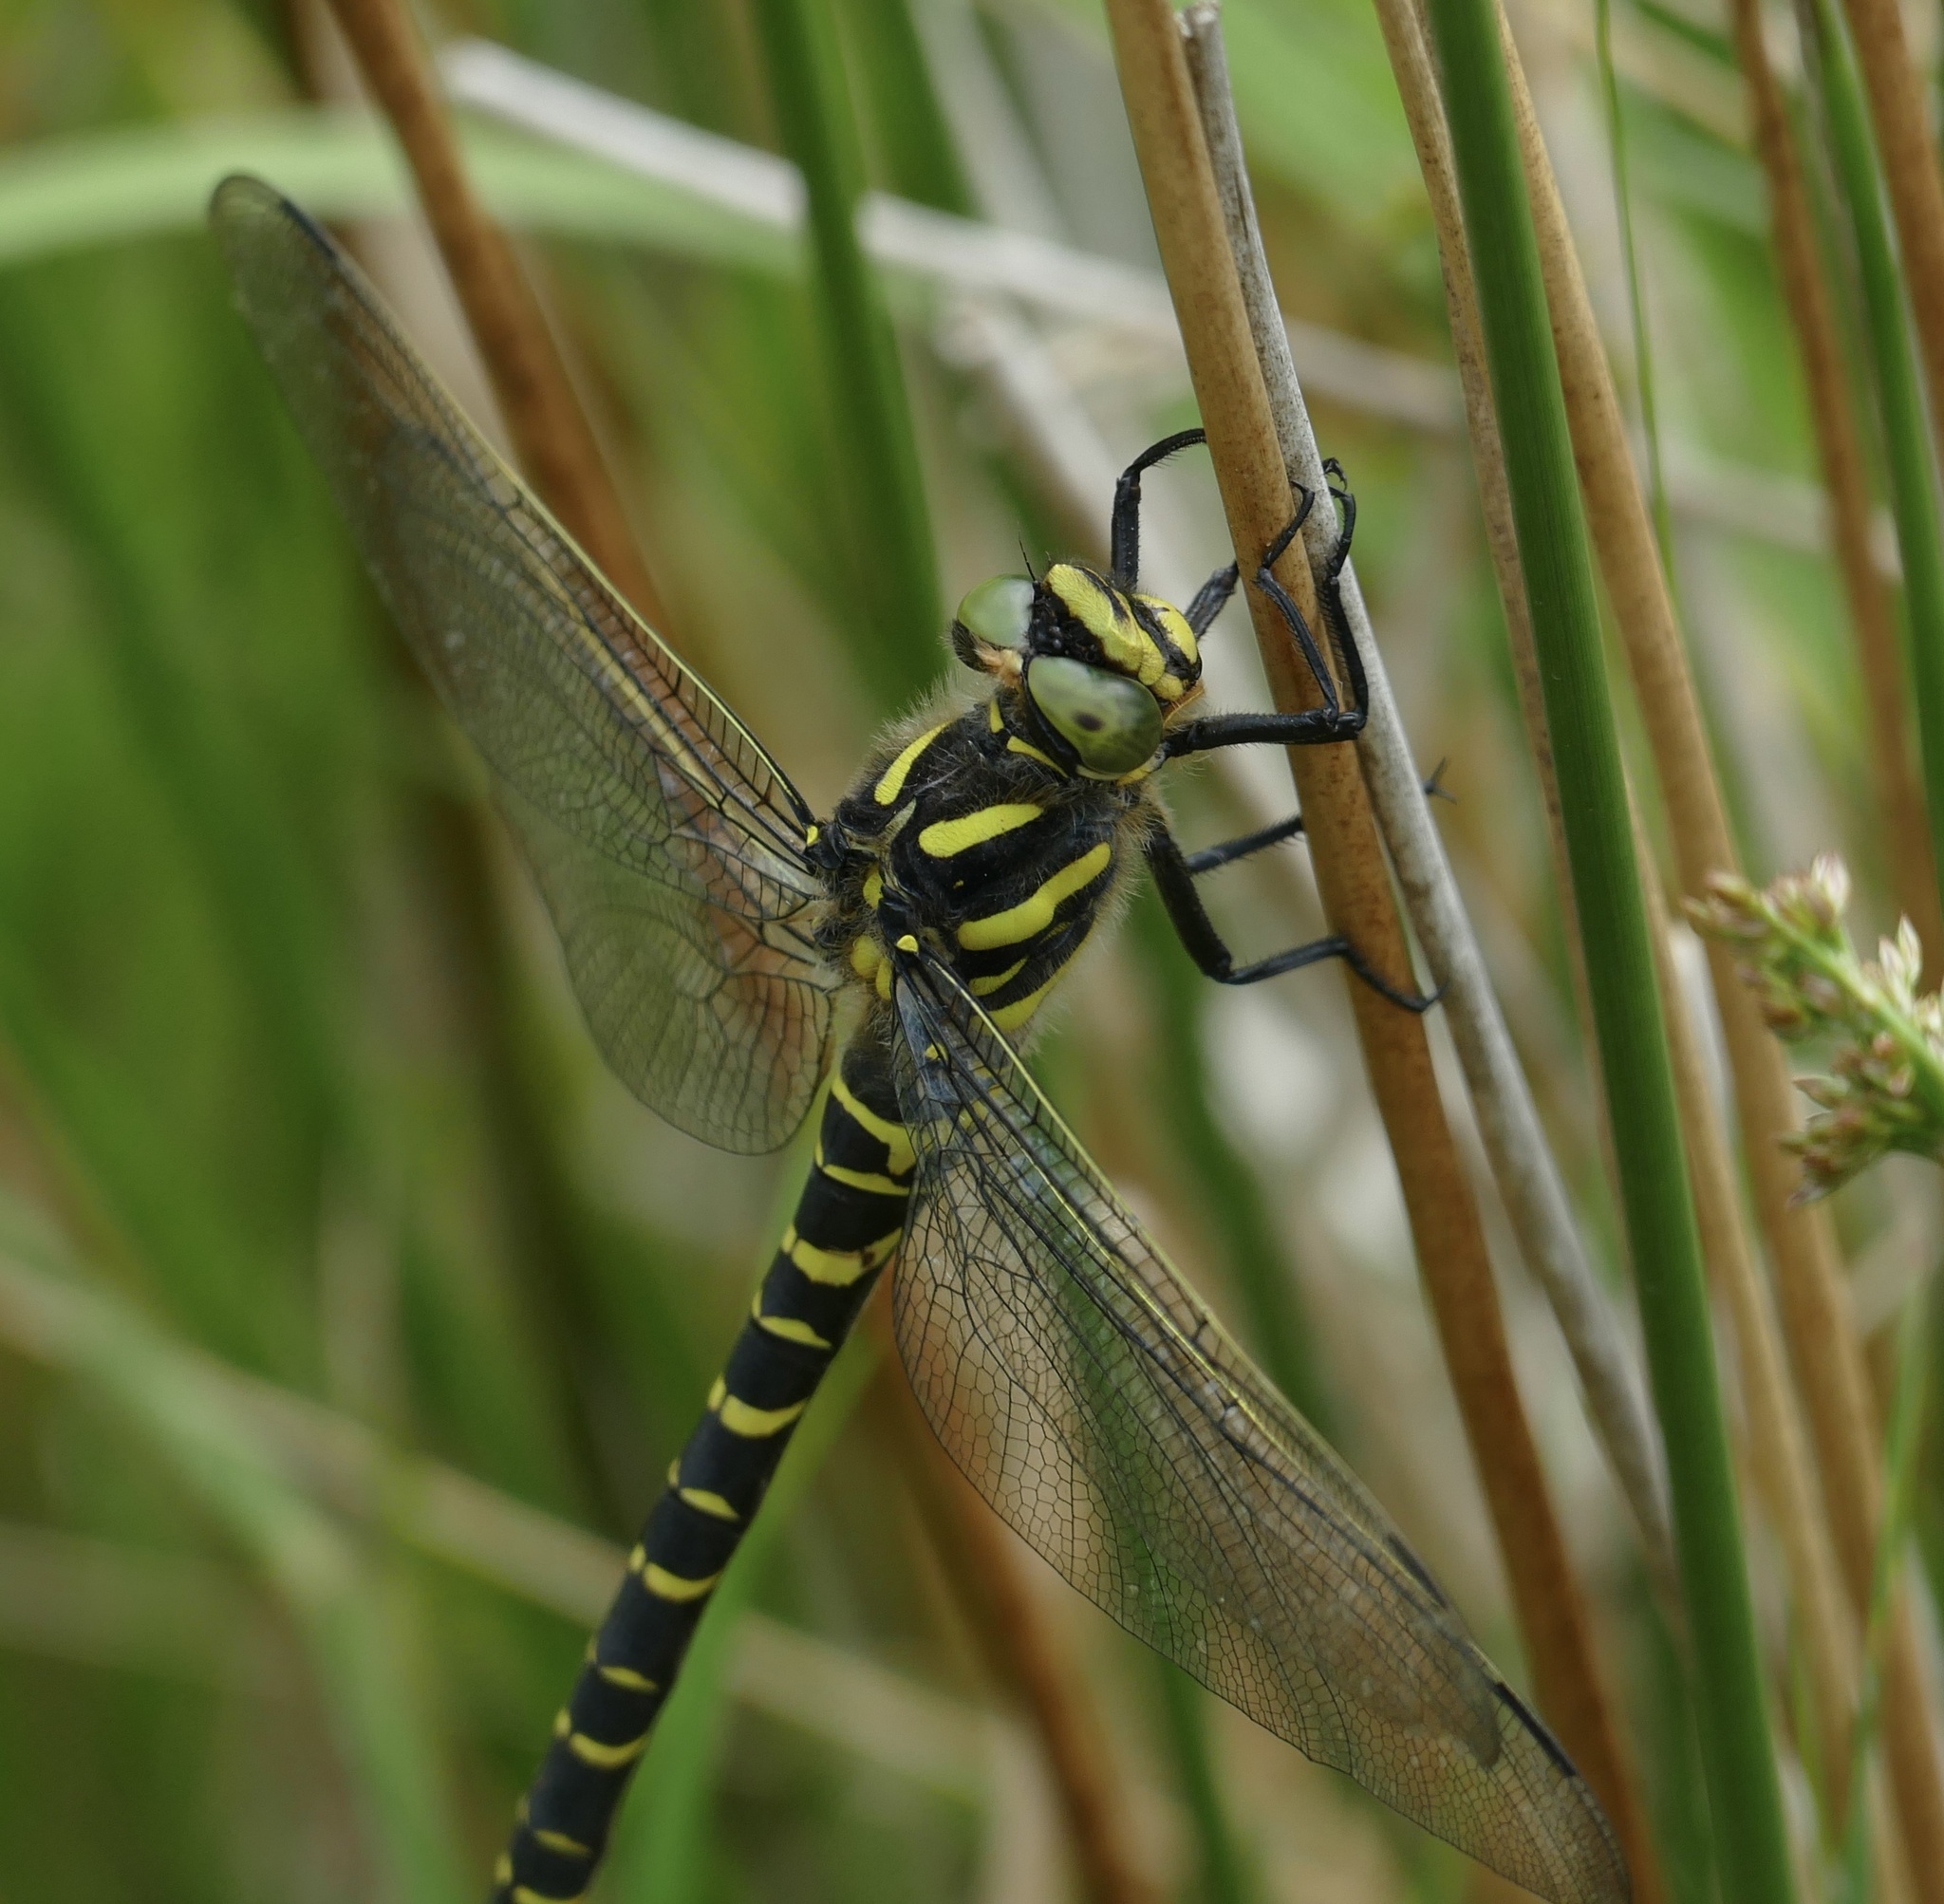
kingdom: Animalia
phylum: Arthropoda
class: Insecta
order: Odonata
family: Cordulegastridae
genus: Cordulegaster
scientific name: Cordulegaster boltonii
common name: Golden-ringed dragonfly
